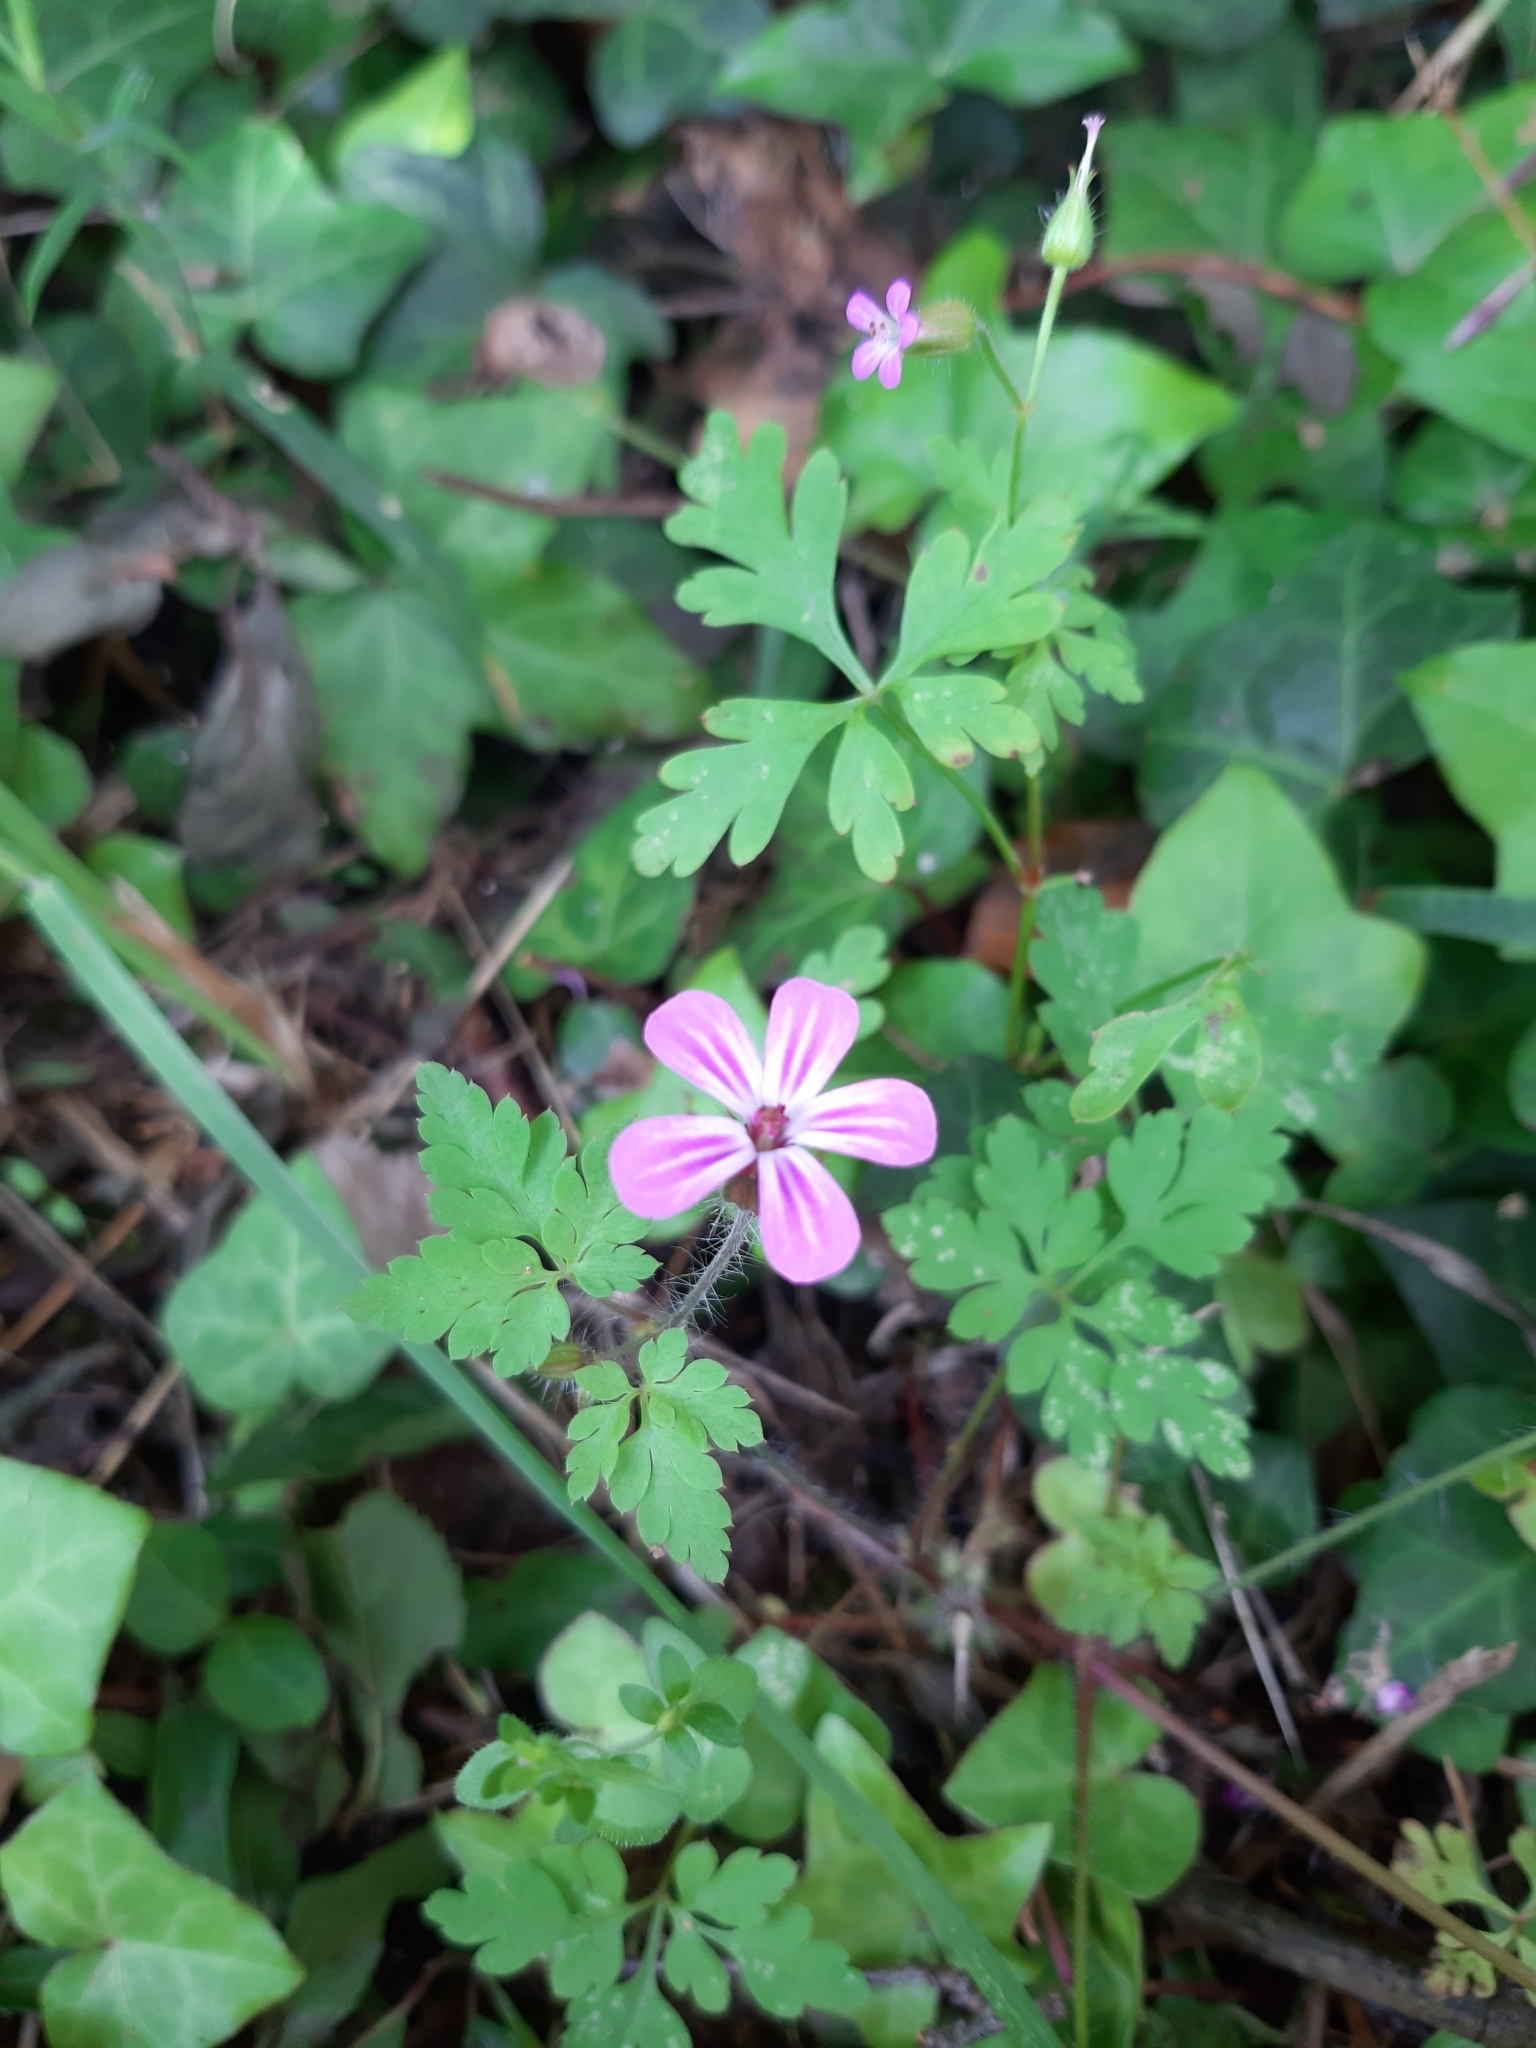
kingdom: Plantae
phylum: Tracheophyta
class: Magnoliopsida
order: Geraniales
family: Geraniaceae
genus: Geranium
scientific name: Geranium robertianum
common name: Herb-robert
